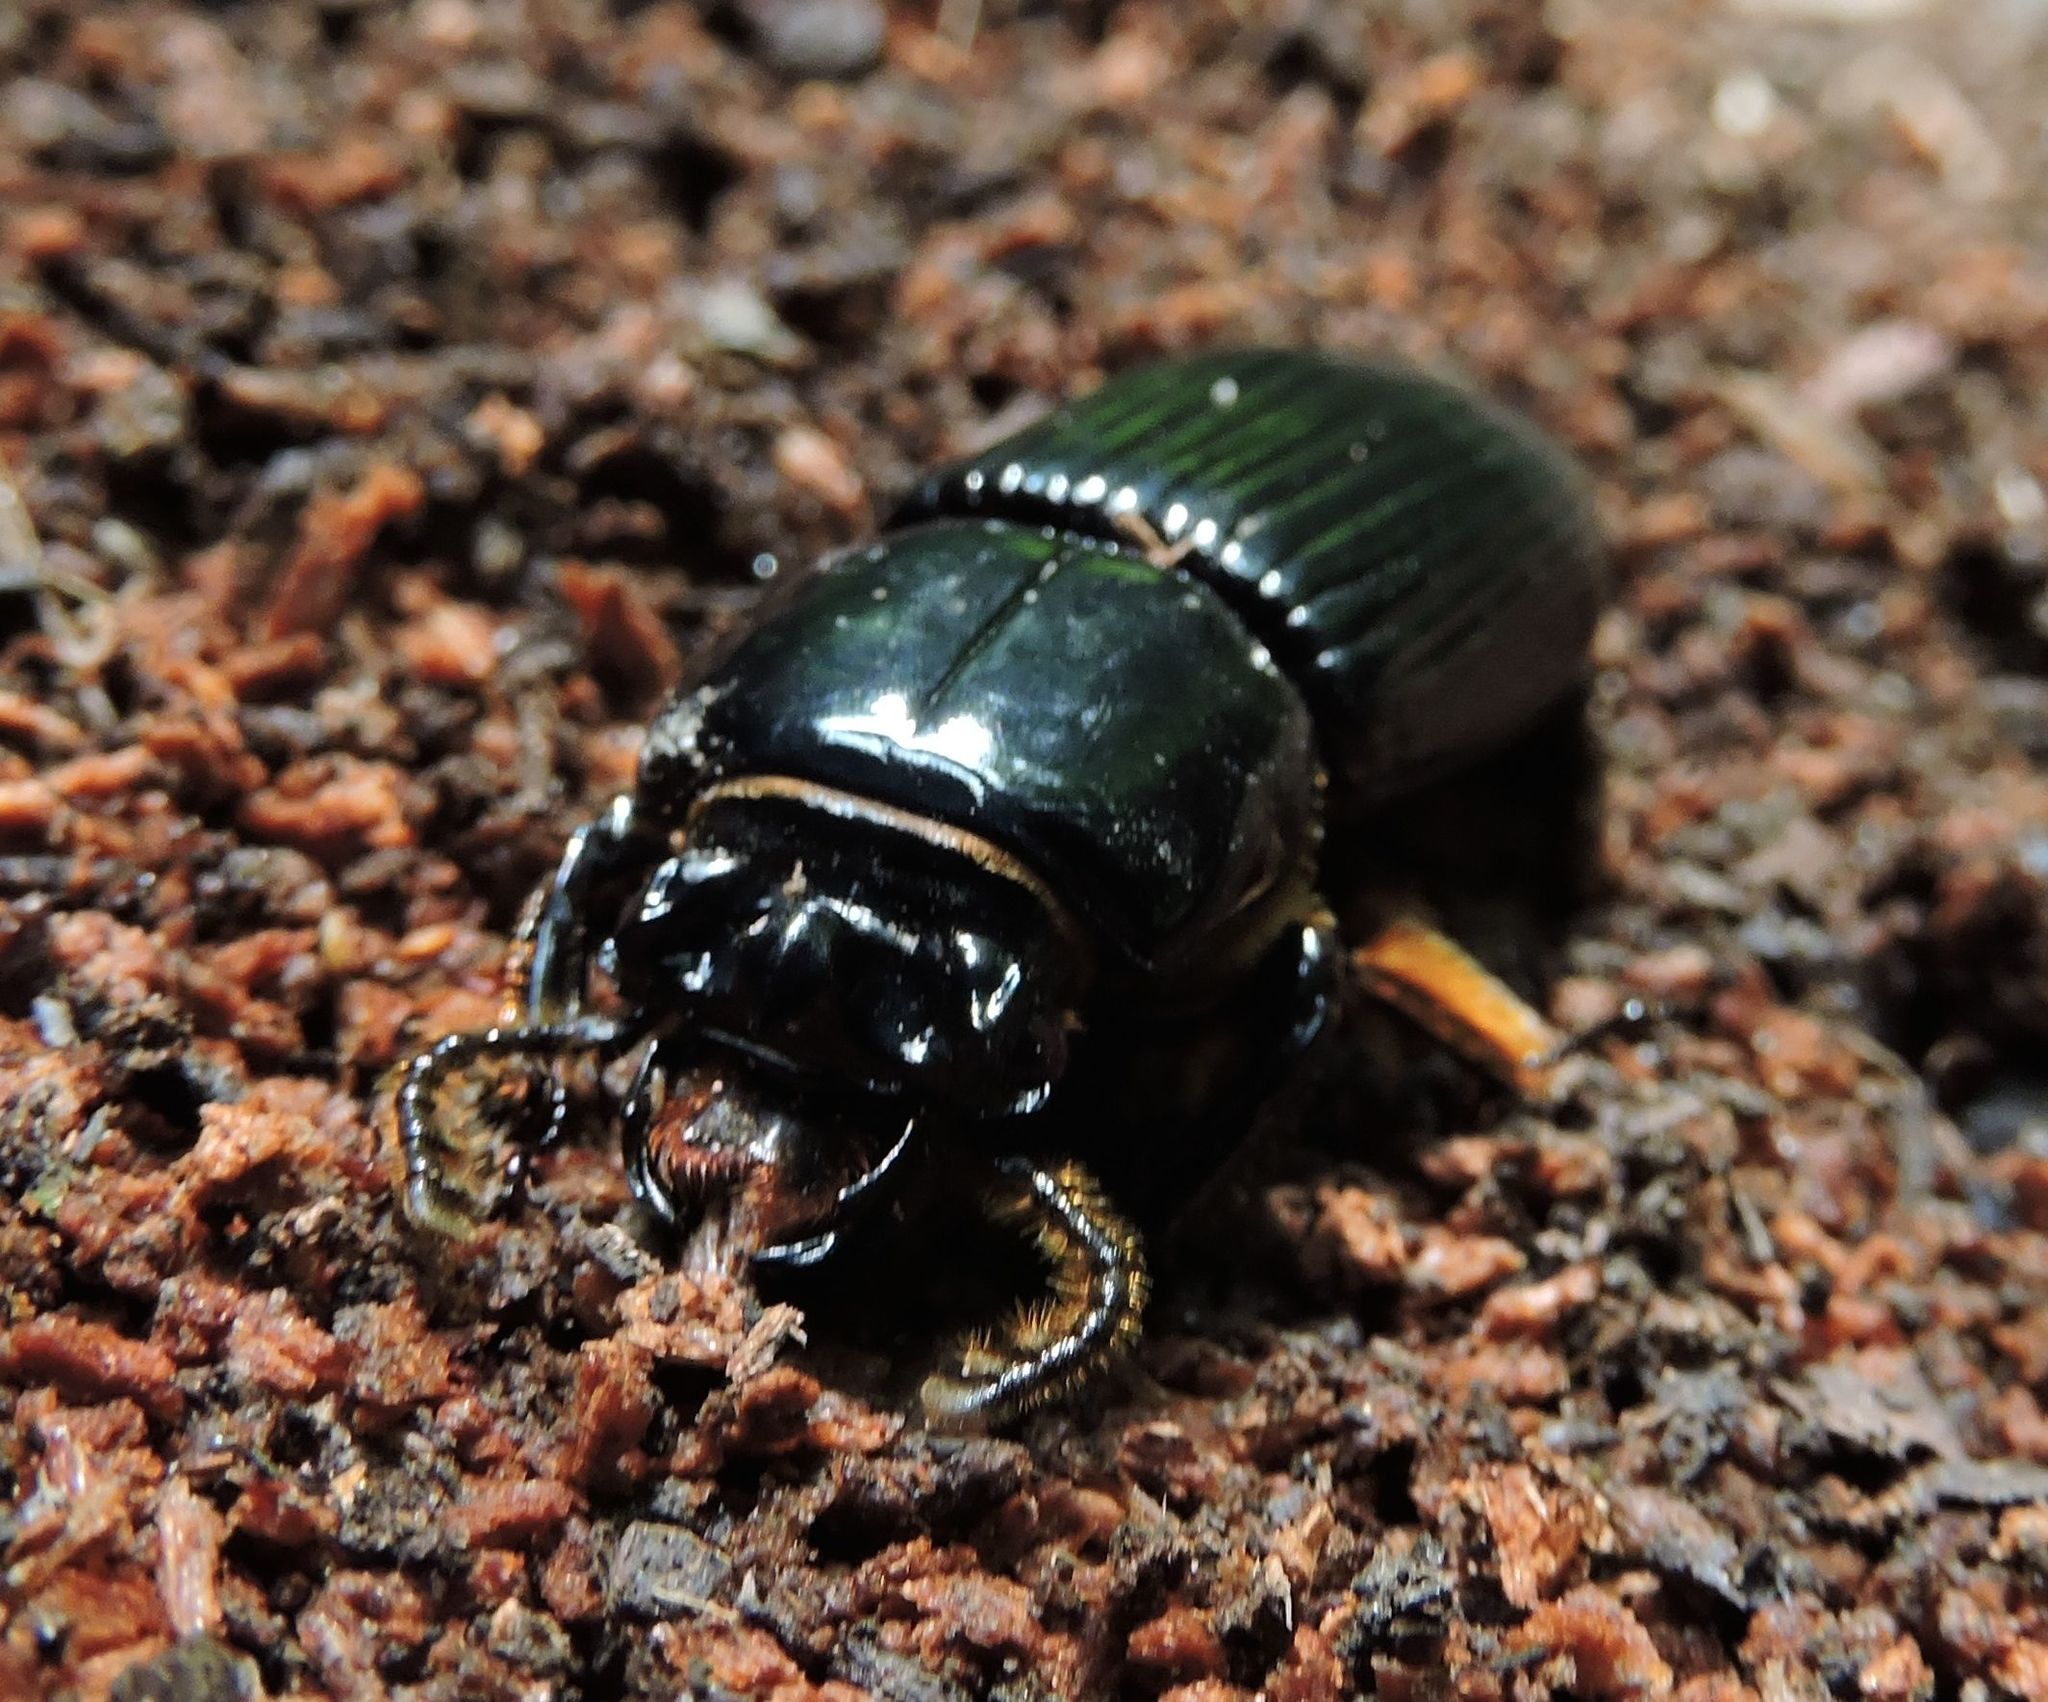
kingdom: Animalia
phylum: Arthropoda
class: Insecta
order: Coleoptera
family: Passalidae
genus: Odontotaenius
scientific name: Odontotaenius disjunctus
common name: Patent leather beetle
